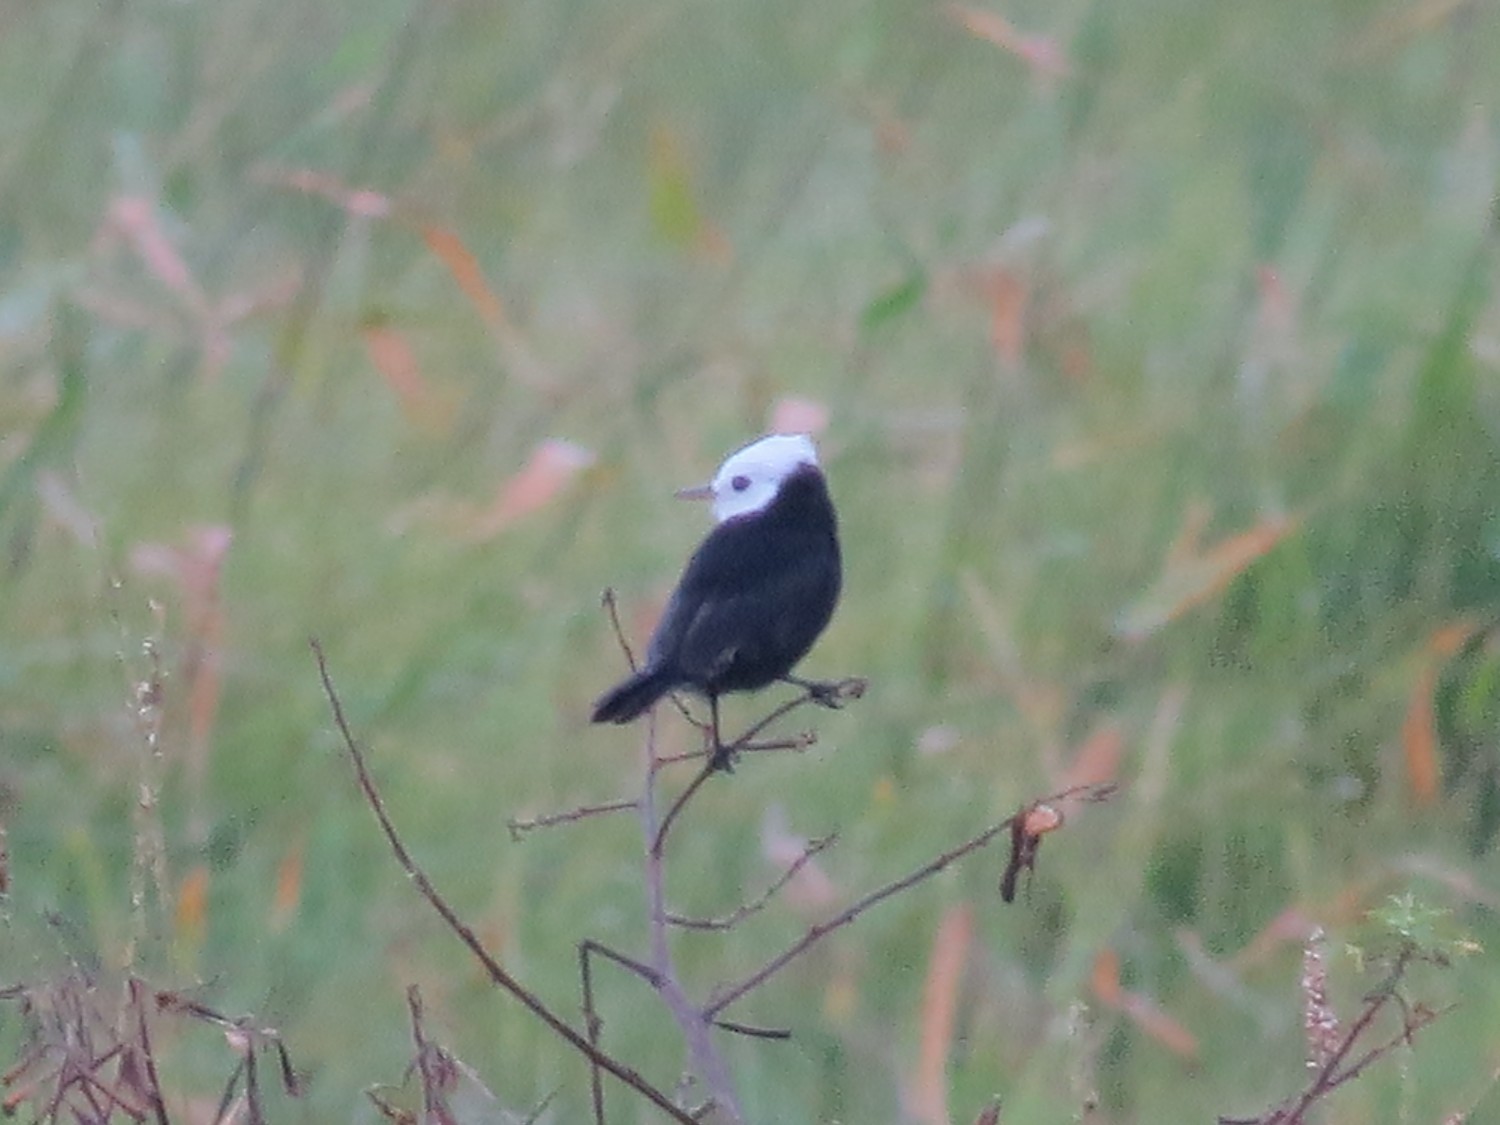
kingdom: Animalia
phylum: Chordata
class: Aves
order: Passeriformes
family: Tyrannidae
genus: Arundinicola
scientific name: Arundinicola leucocephala
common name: White-headed marsh tyrant
